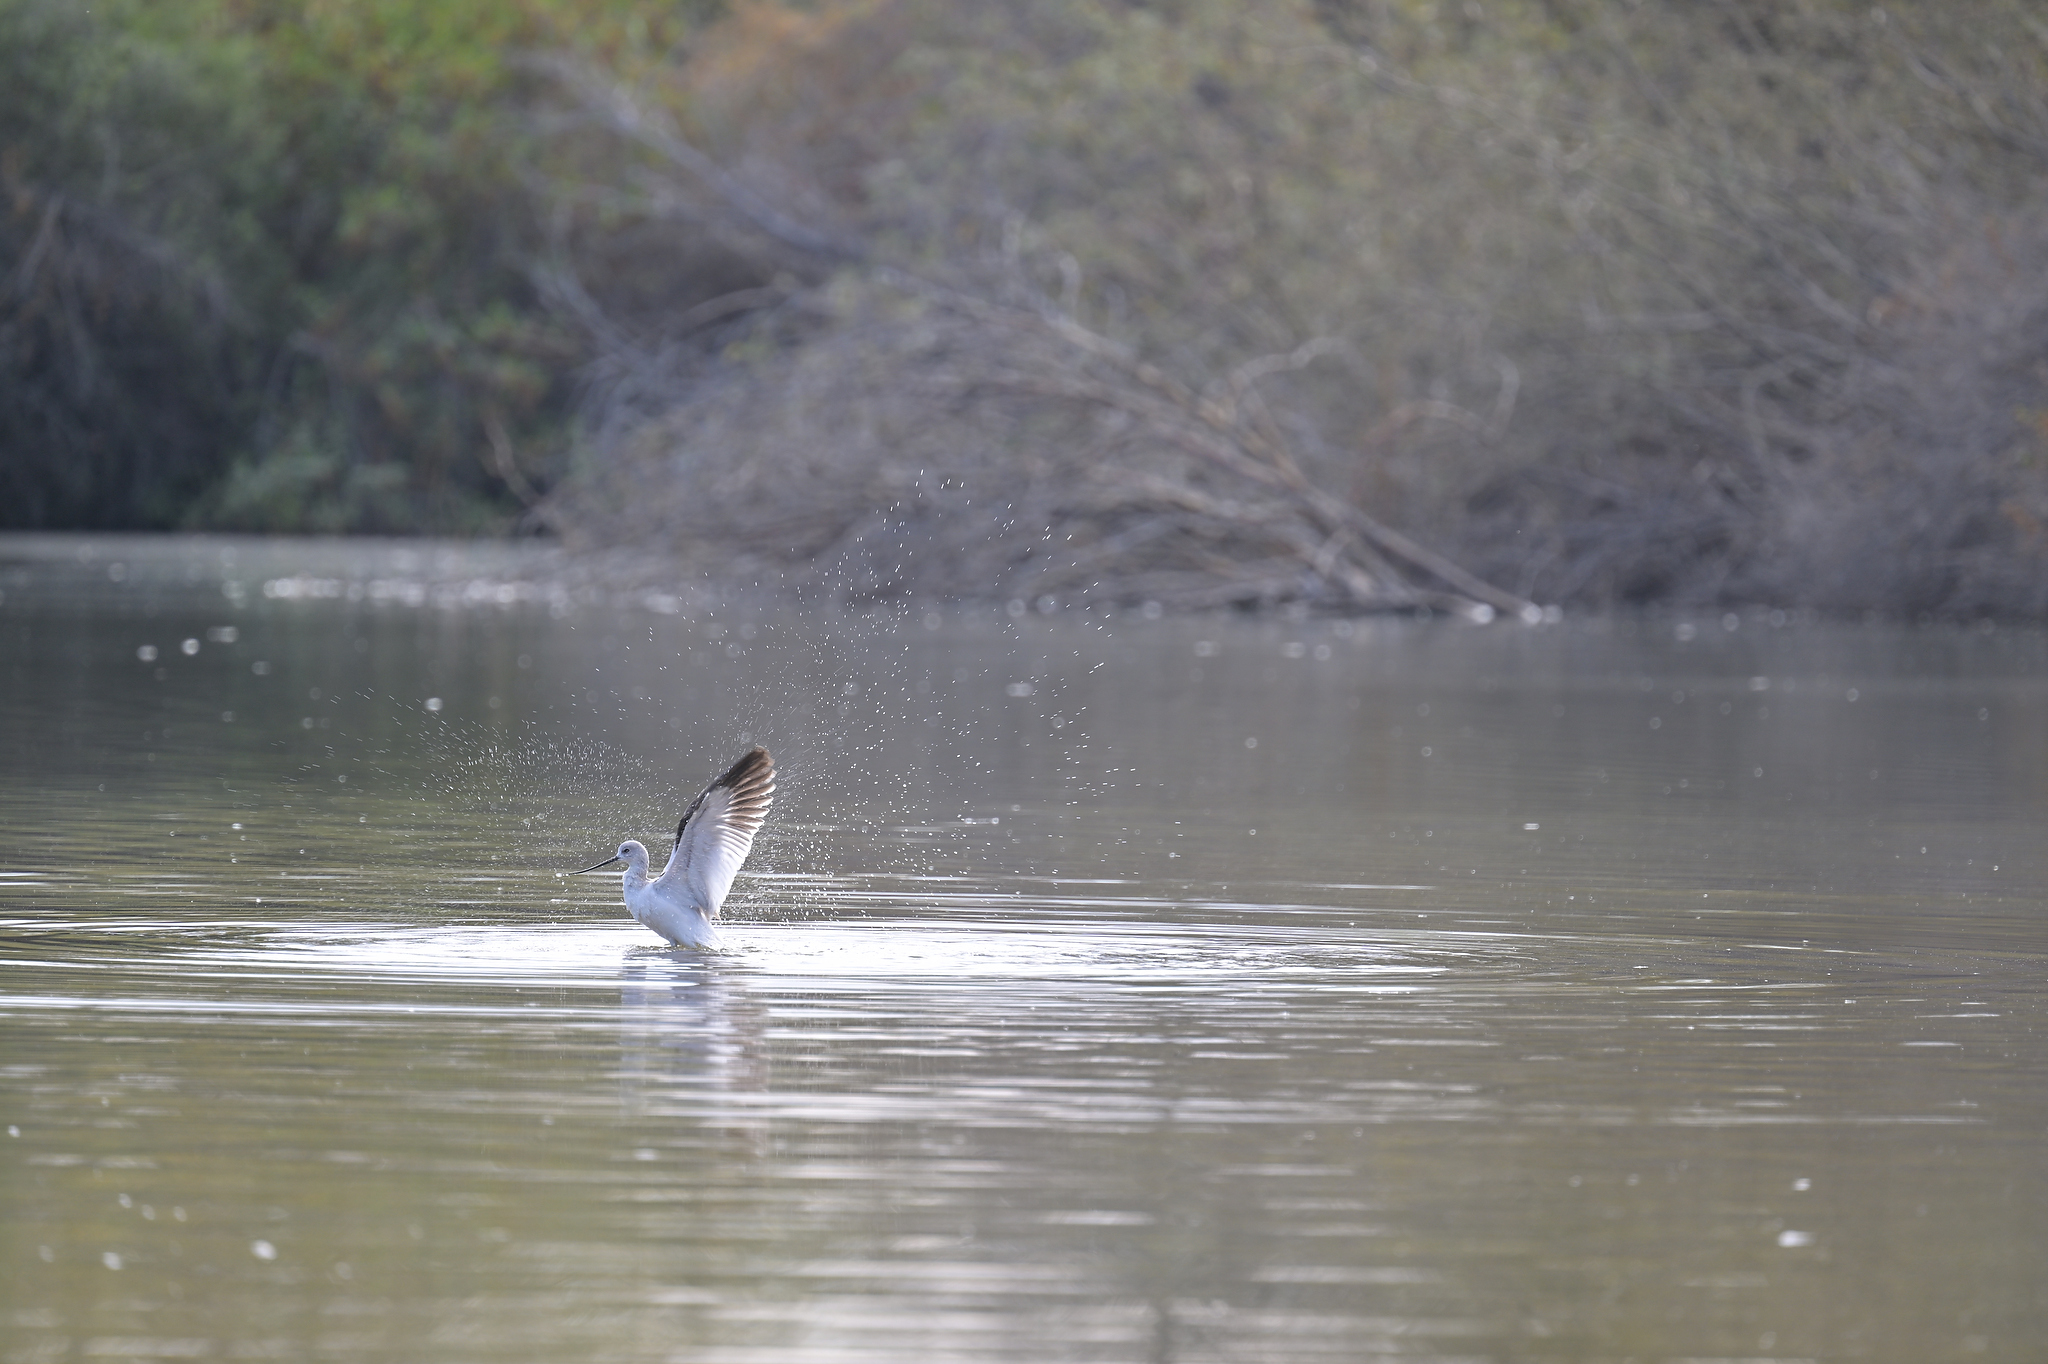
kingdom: Animalia
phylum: Chordata
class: Aves
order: Charadriiformes
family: Recurvirostridae
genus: Recurvirostra
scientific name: Recurvirostra americana
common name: American avocet
